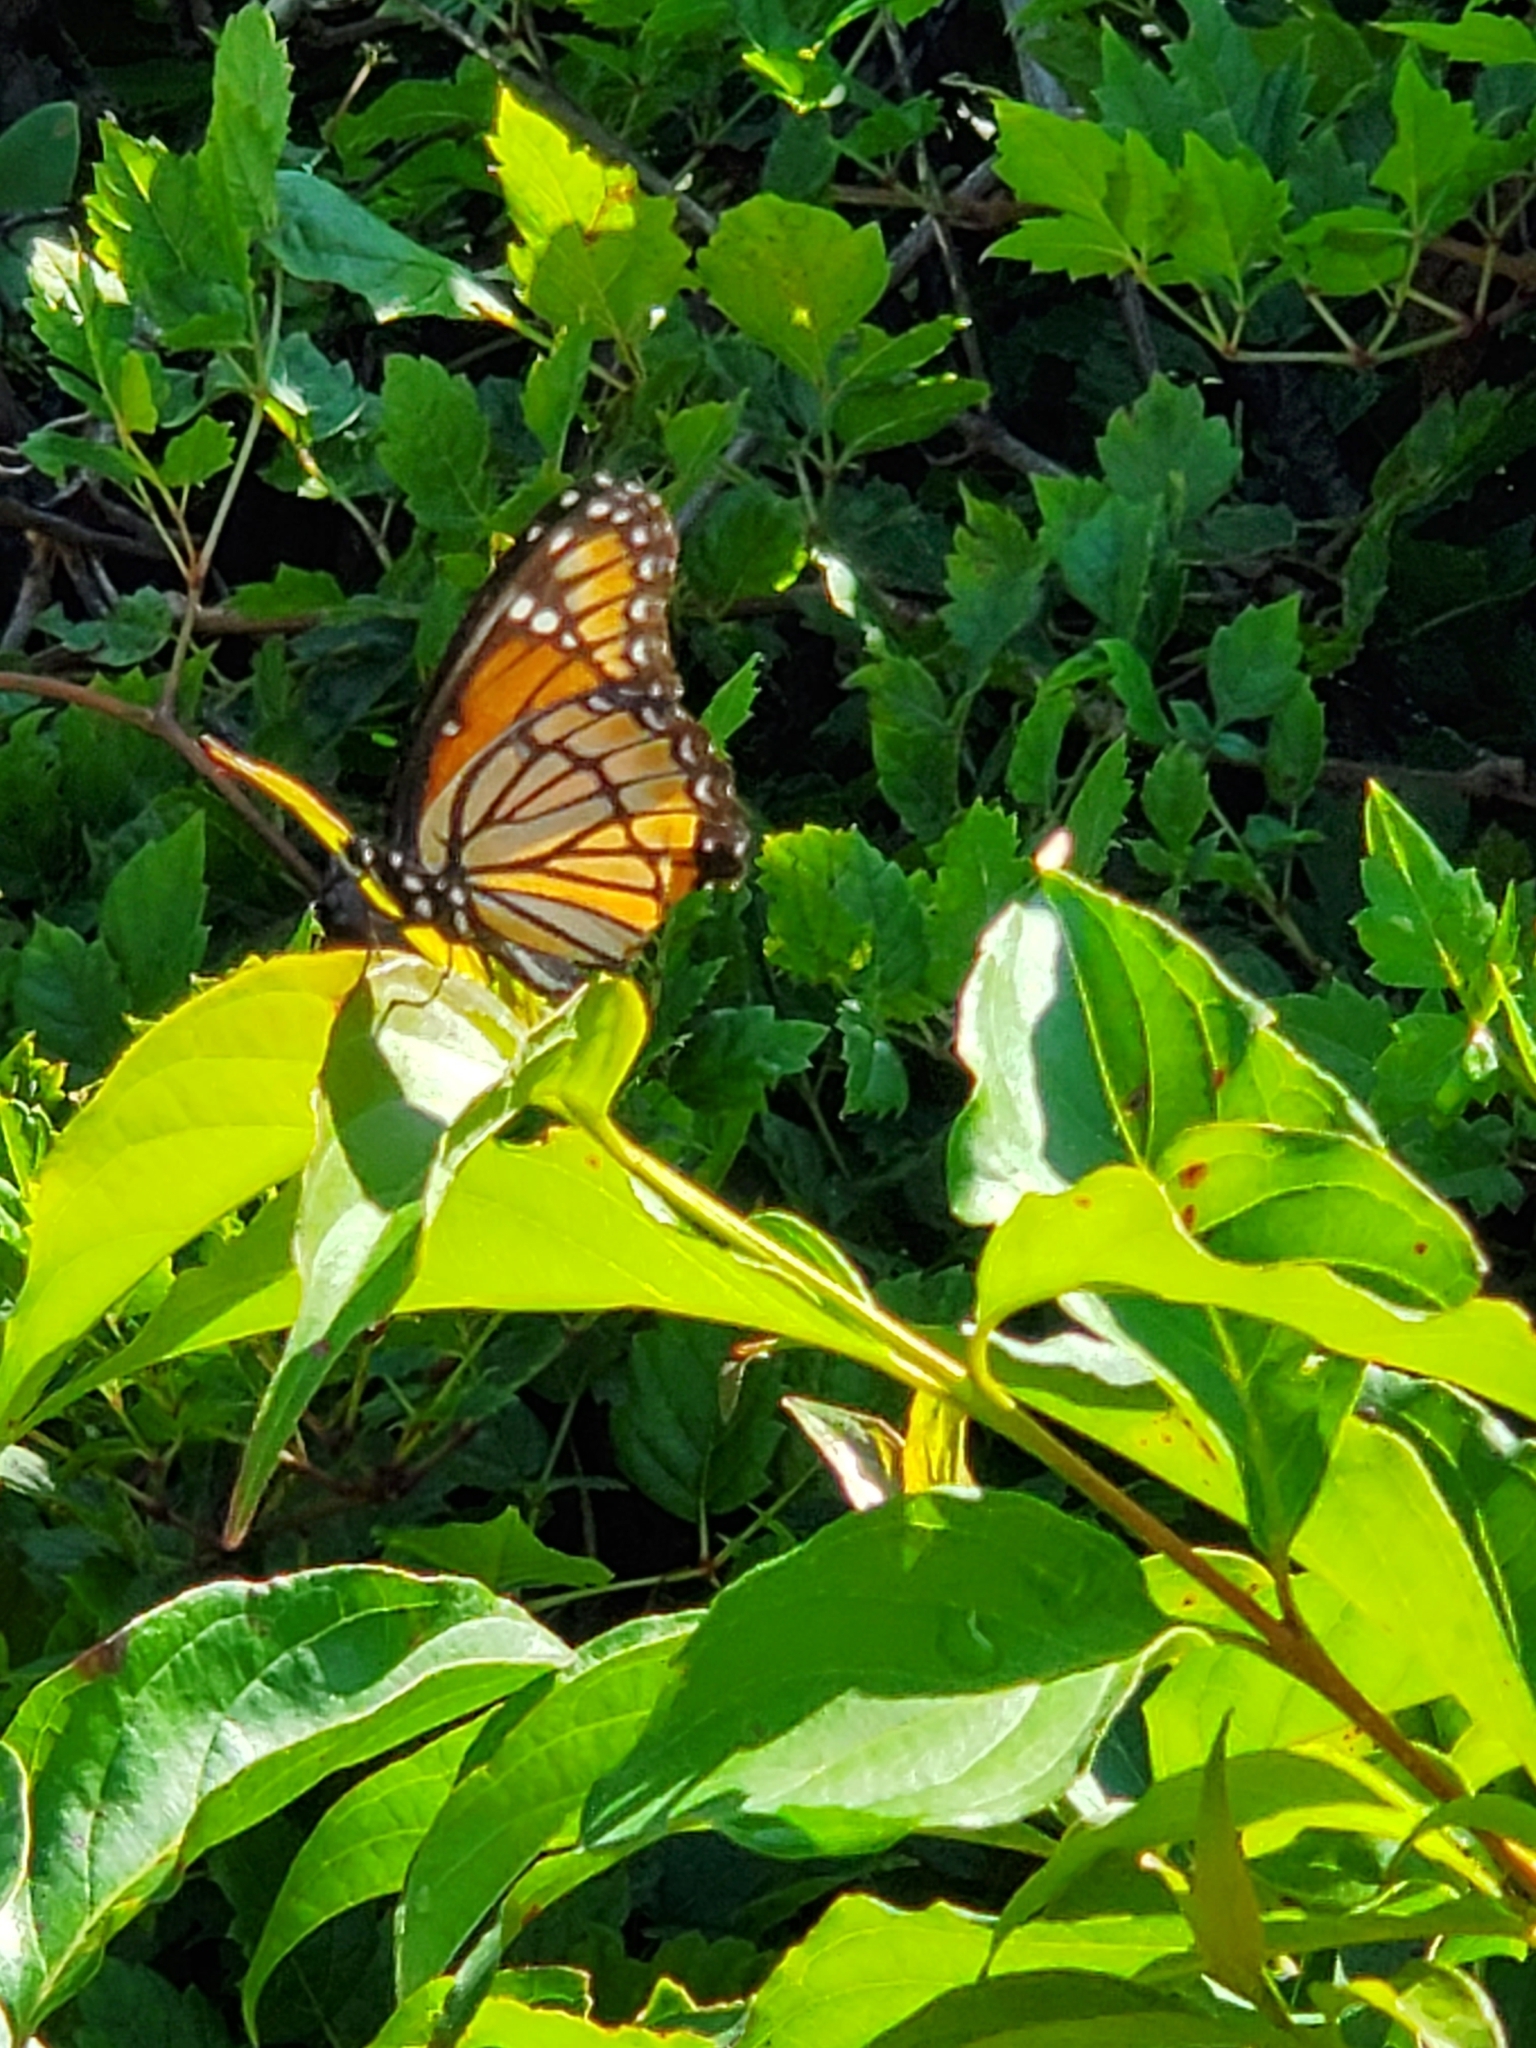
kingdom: Animalia
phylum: Arthropoda
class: Insecta
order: Lepidoptera
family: Nymphalidae
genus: Limenitis
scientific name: Limenitis archippus
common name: Viceroy
